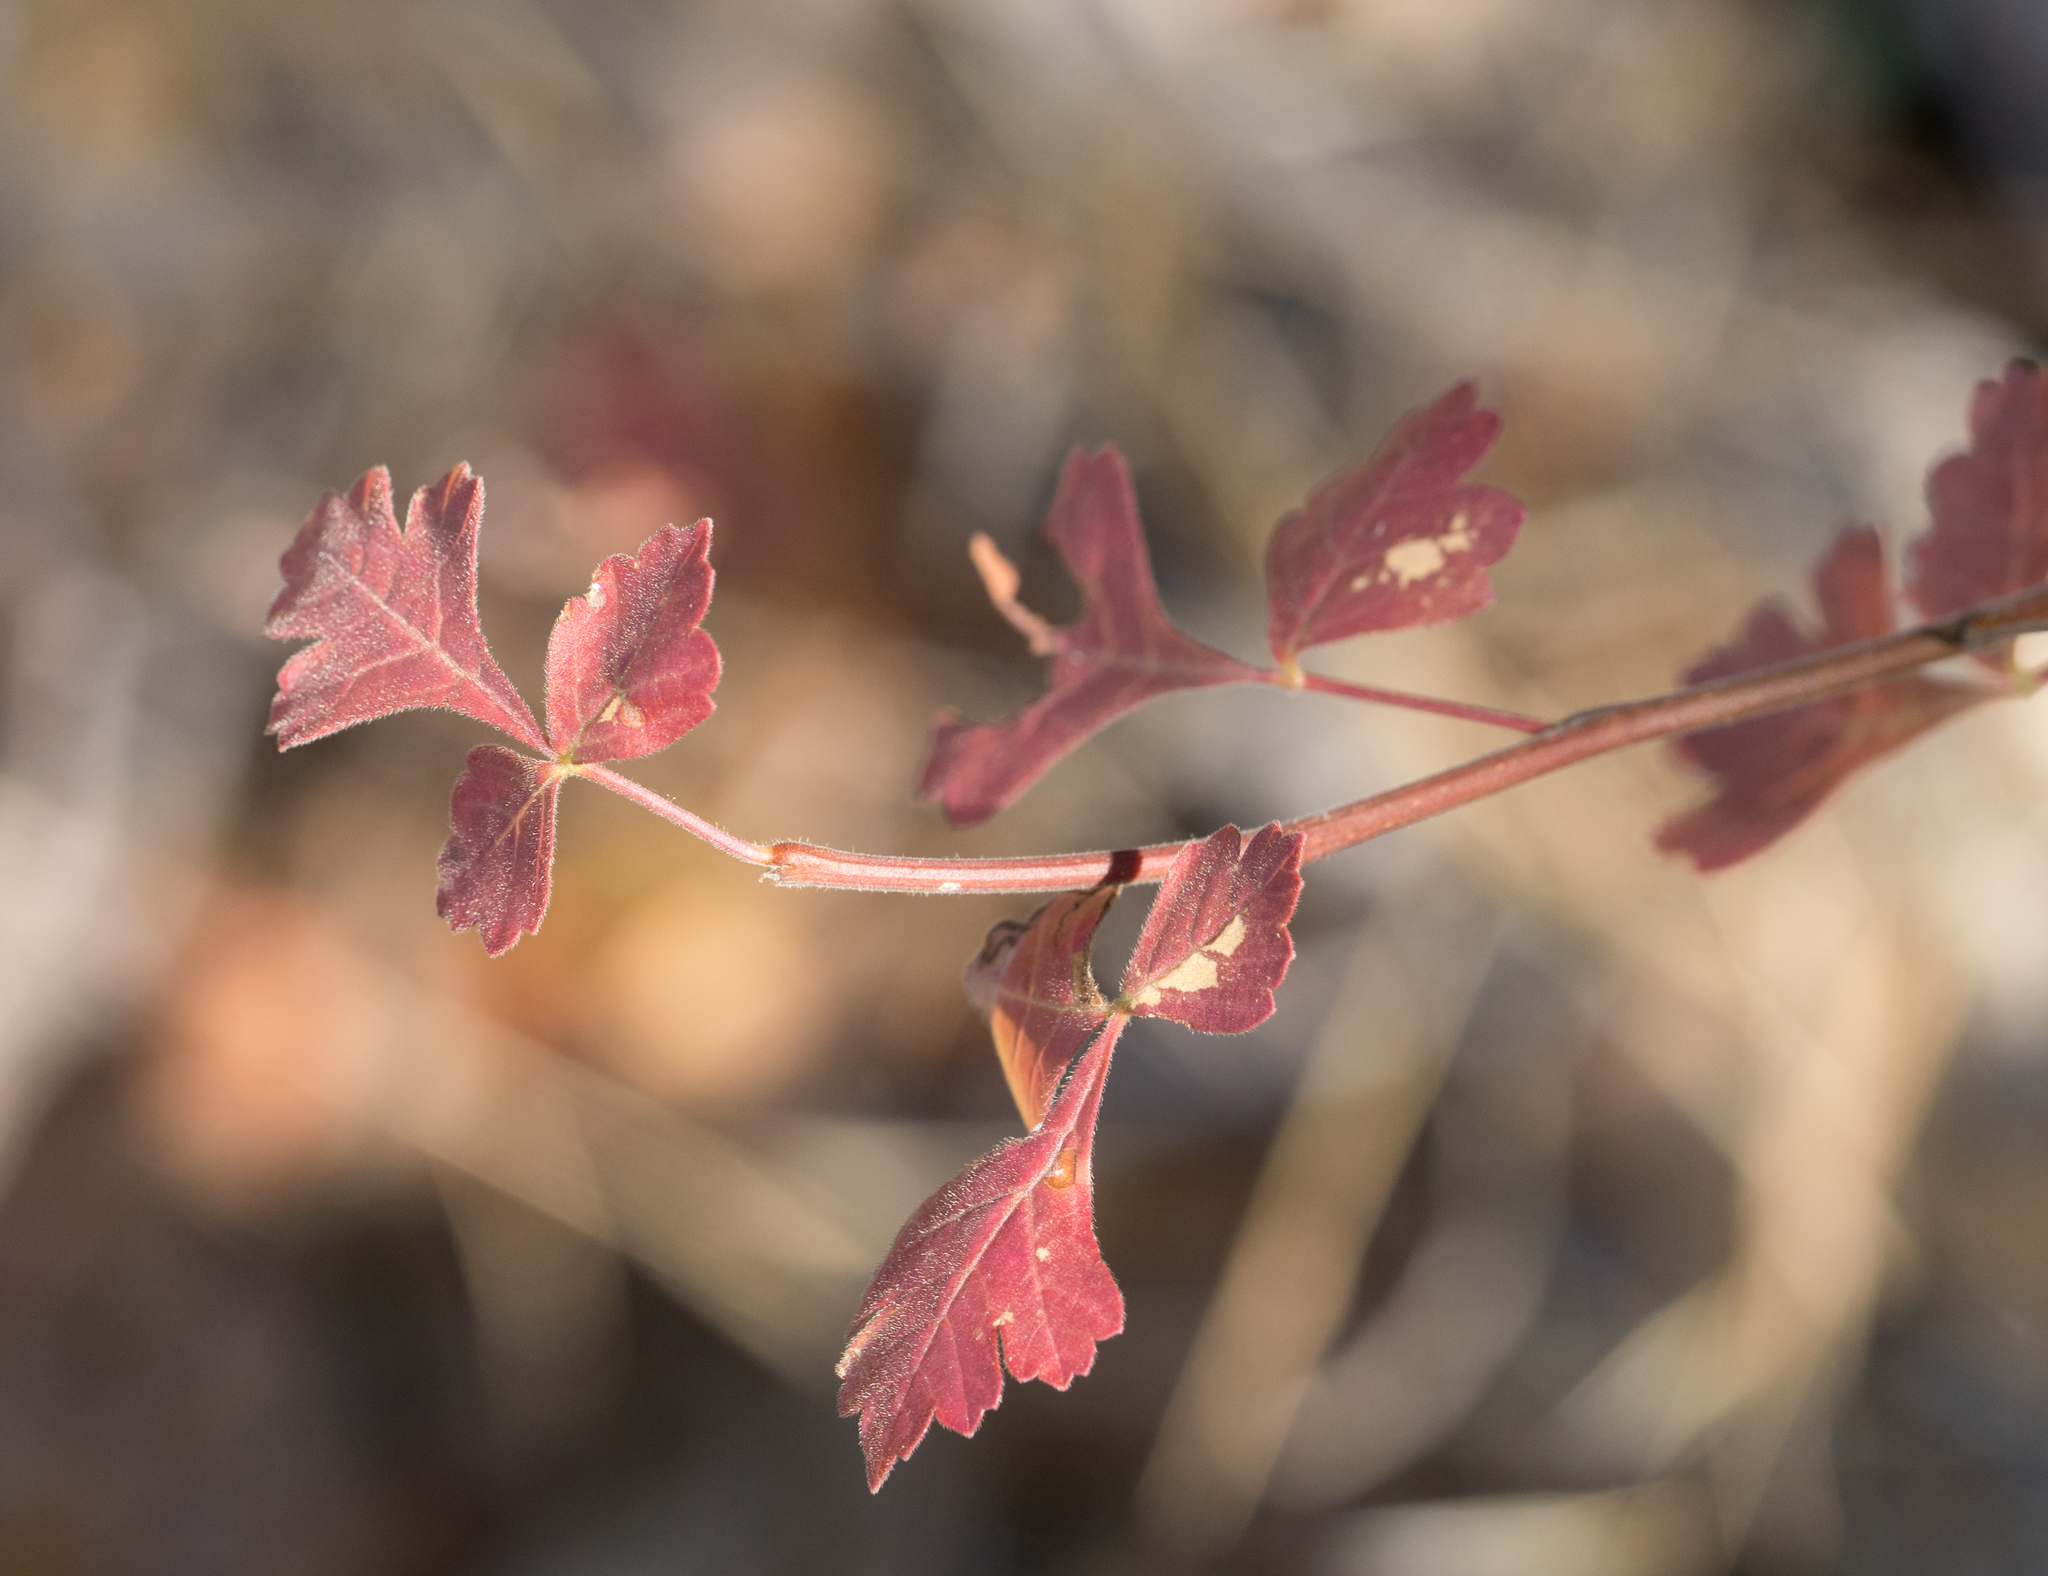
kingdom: Plantae
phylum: Tracheophyta
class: Magnoliopsida
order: Sapindales
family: Anacardiaceae
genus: Rhus
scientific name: Rhus aromatica
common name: Aromatic sumac
